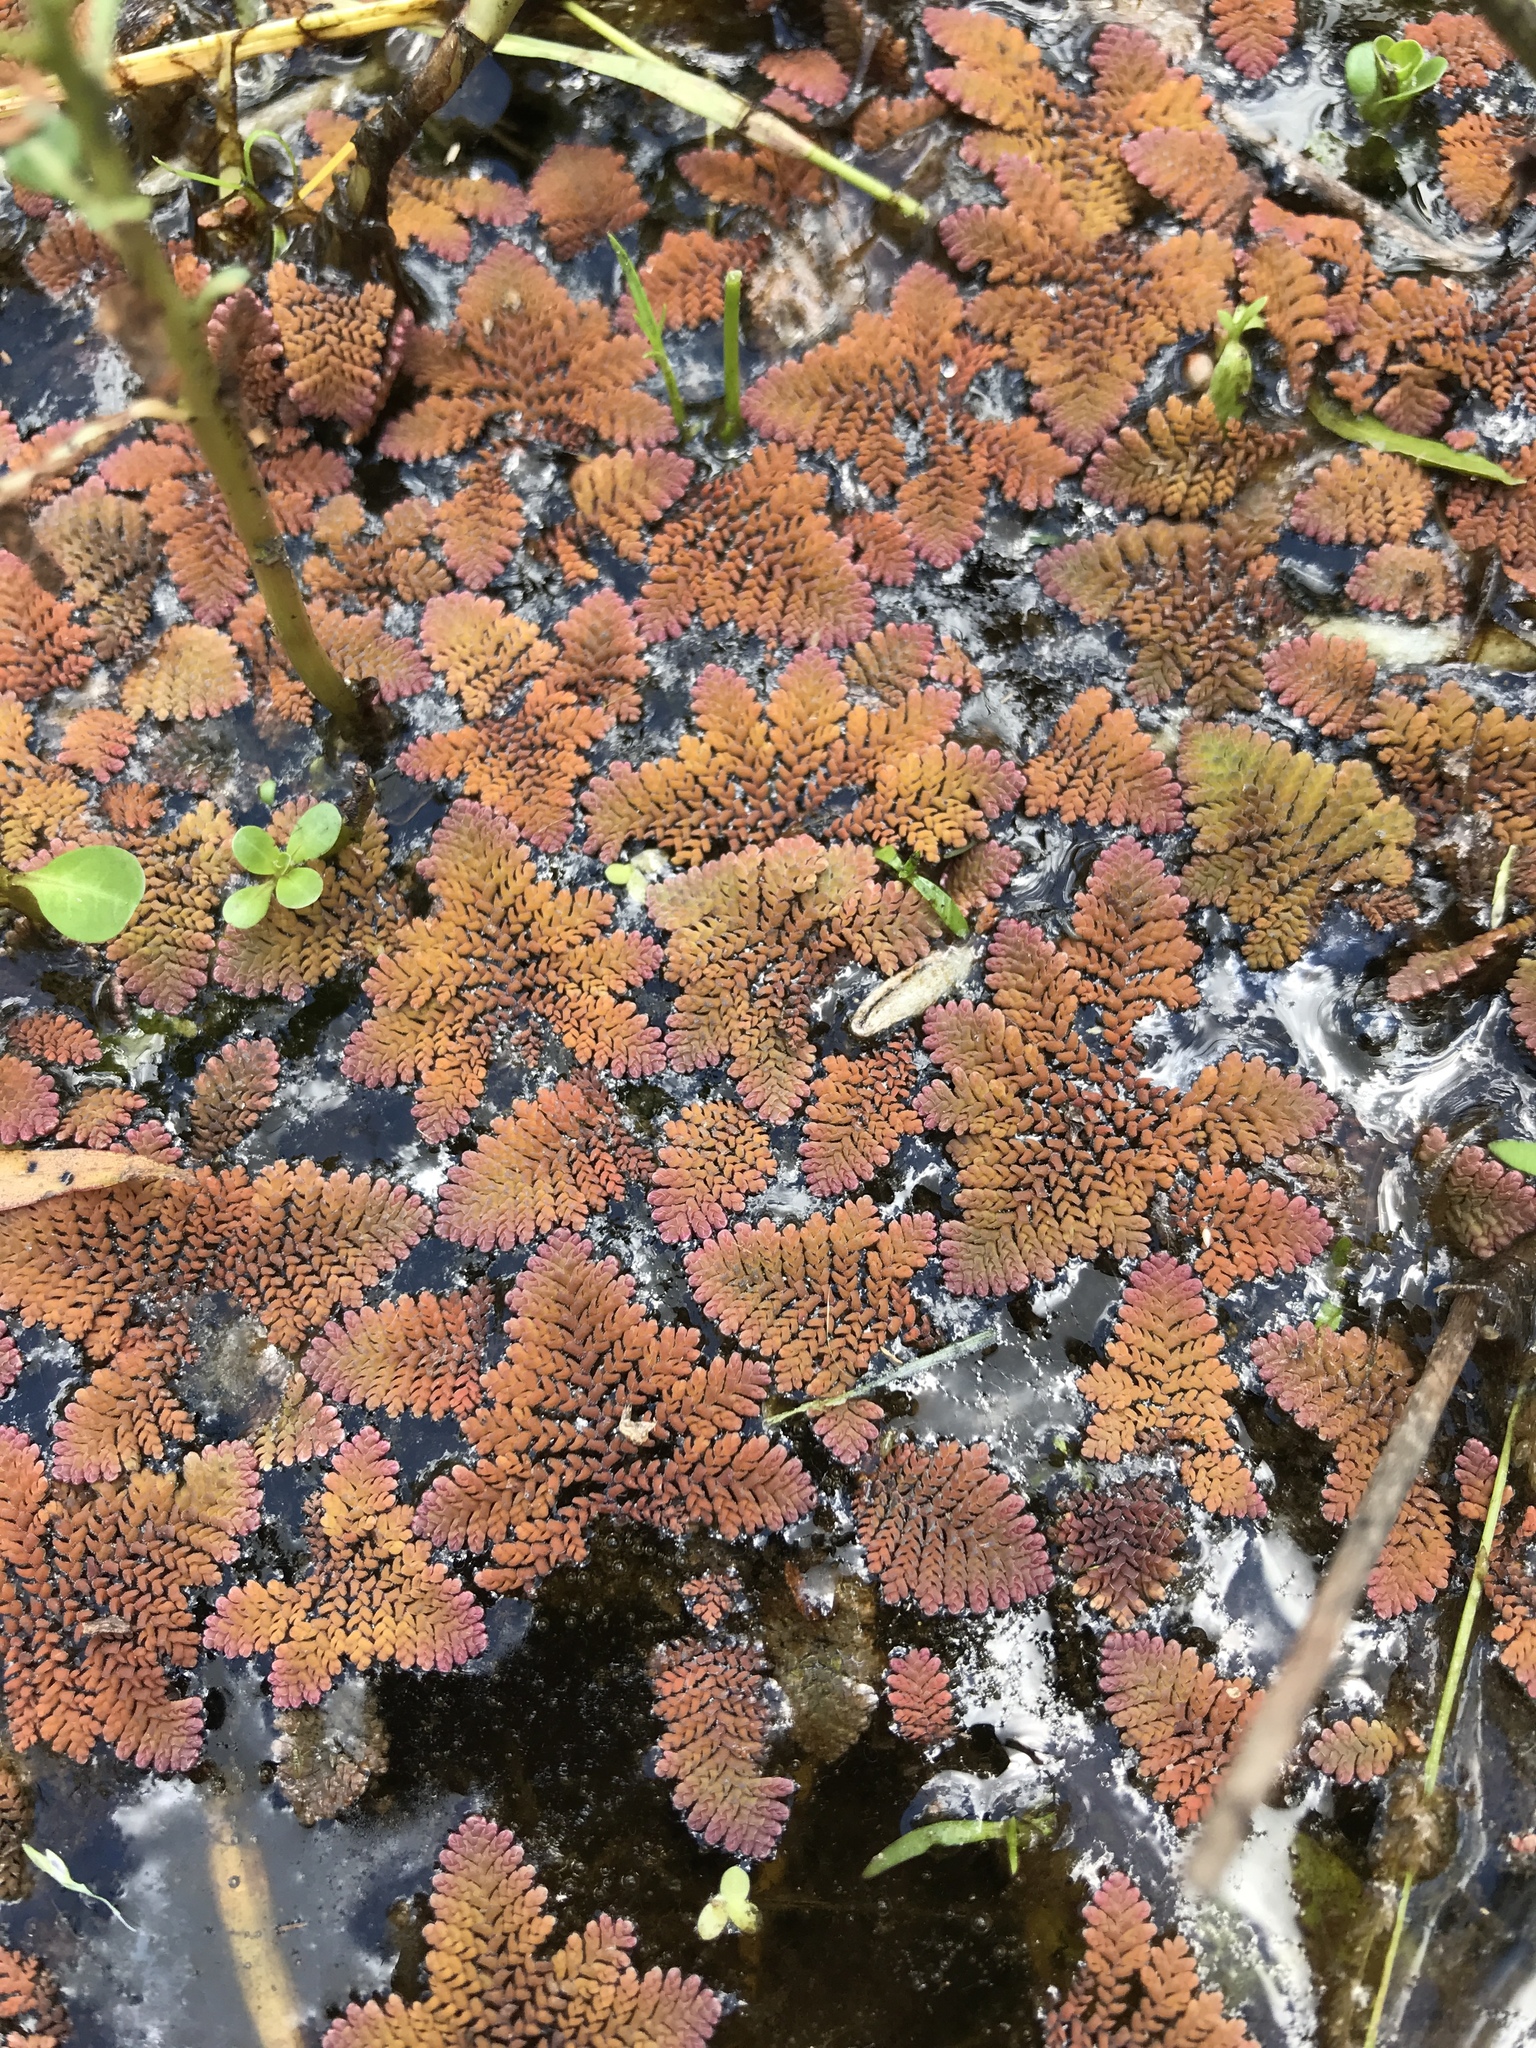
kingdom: Plantae
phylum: Tracheophyta
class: Polypodiopsida
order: Salviniales
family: Salviniaceae
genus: Azolla
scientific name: Azolla pinnata
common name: Ferny azolla
